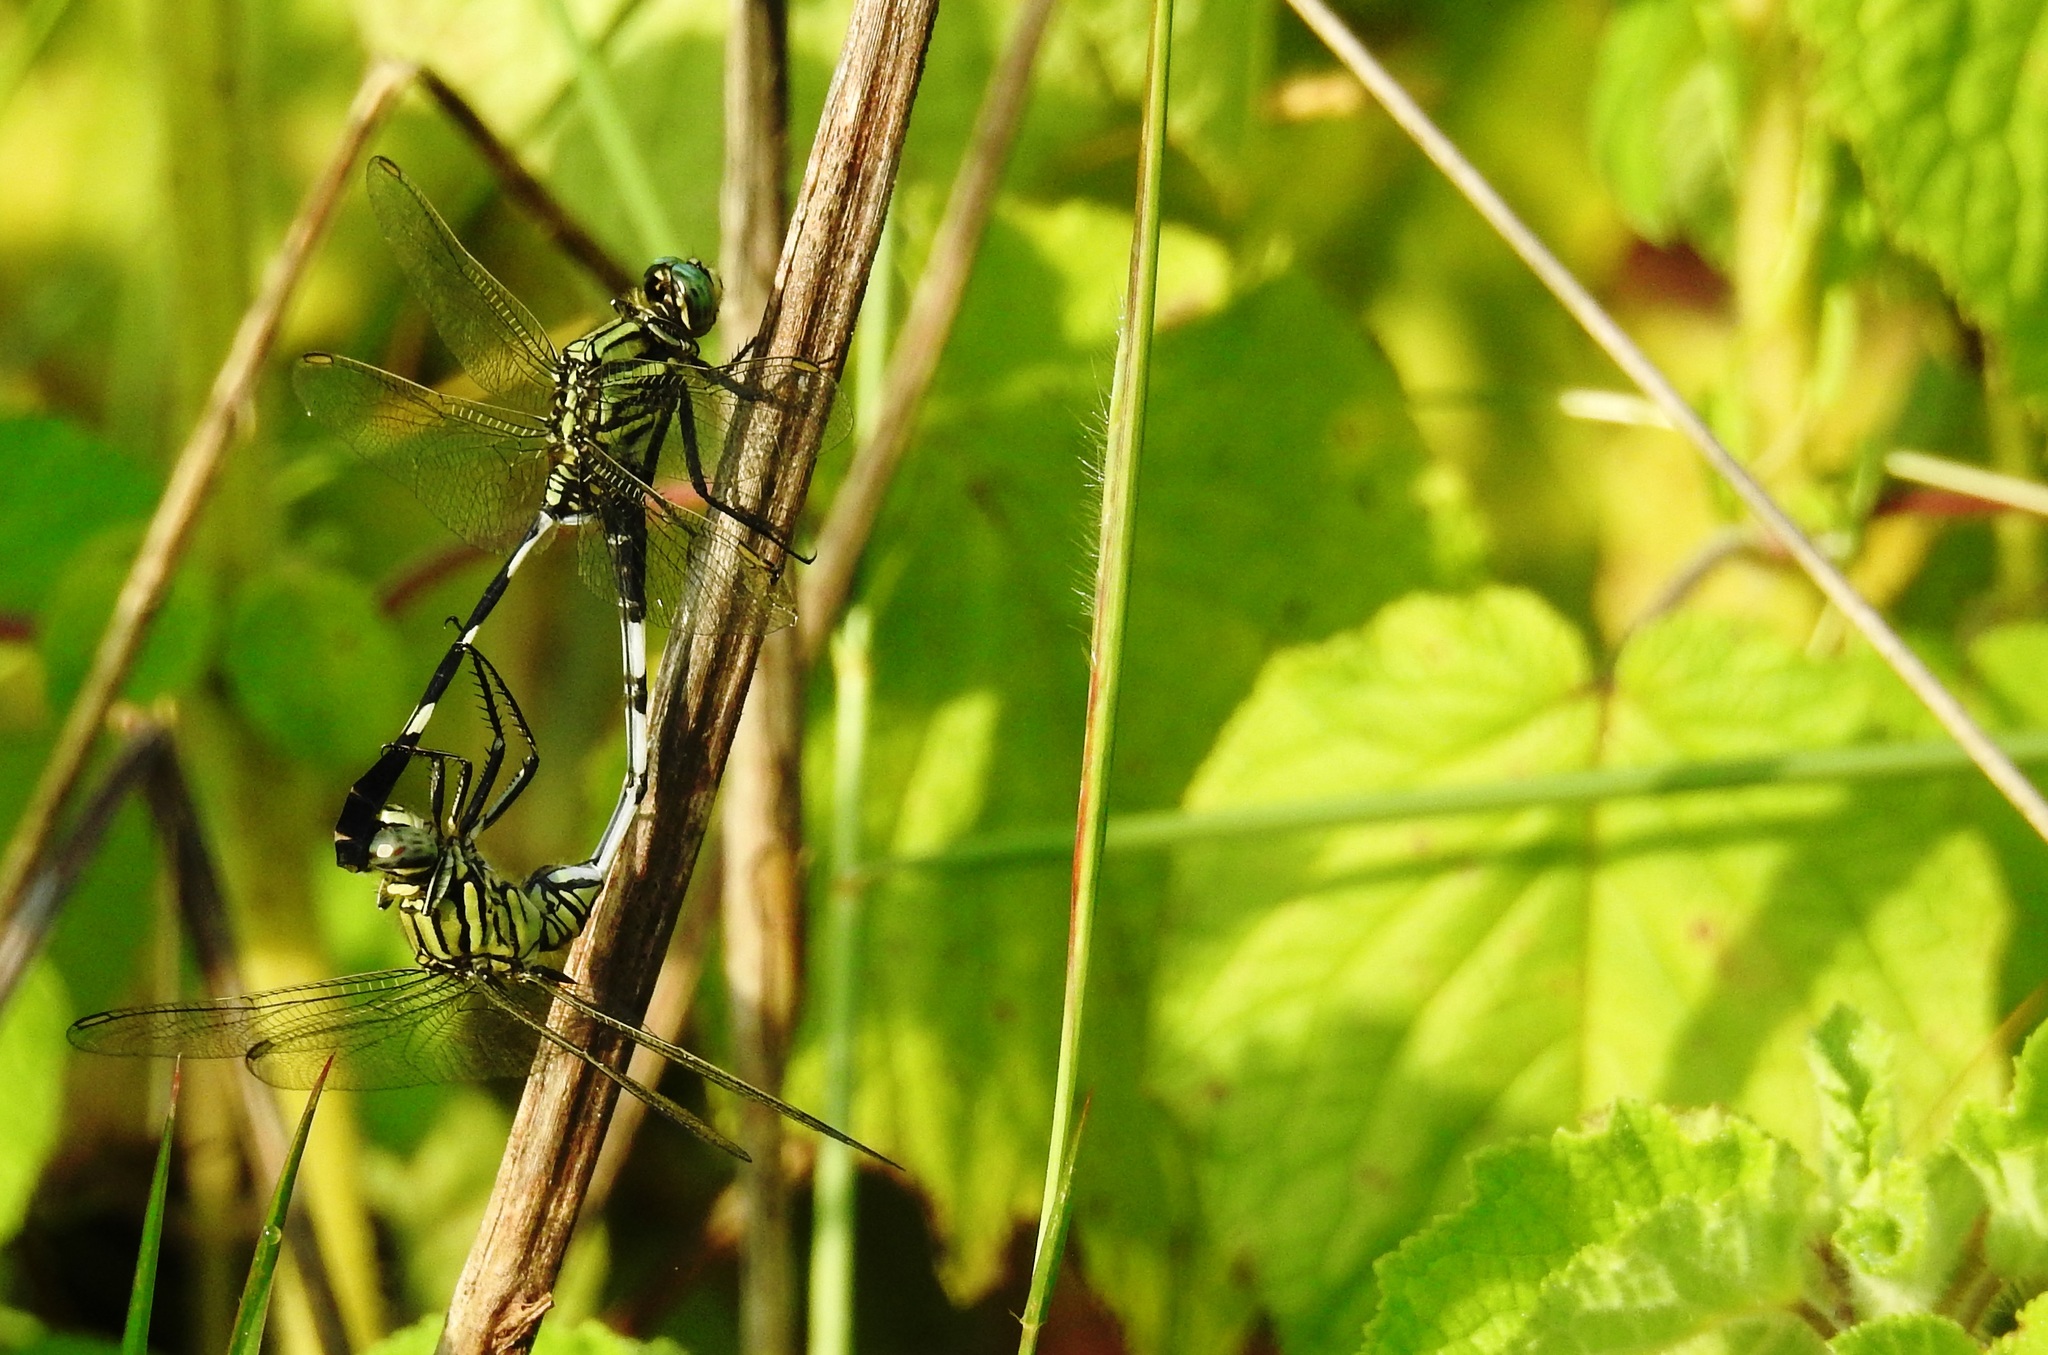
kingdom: Animalia
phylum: Arthropoda
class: Insecta
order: Odonata
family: Libellulidae
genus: Orthetrum
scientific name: Orthetrum sabina
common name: Slender skimmer
